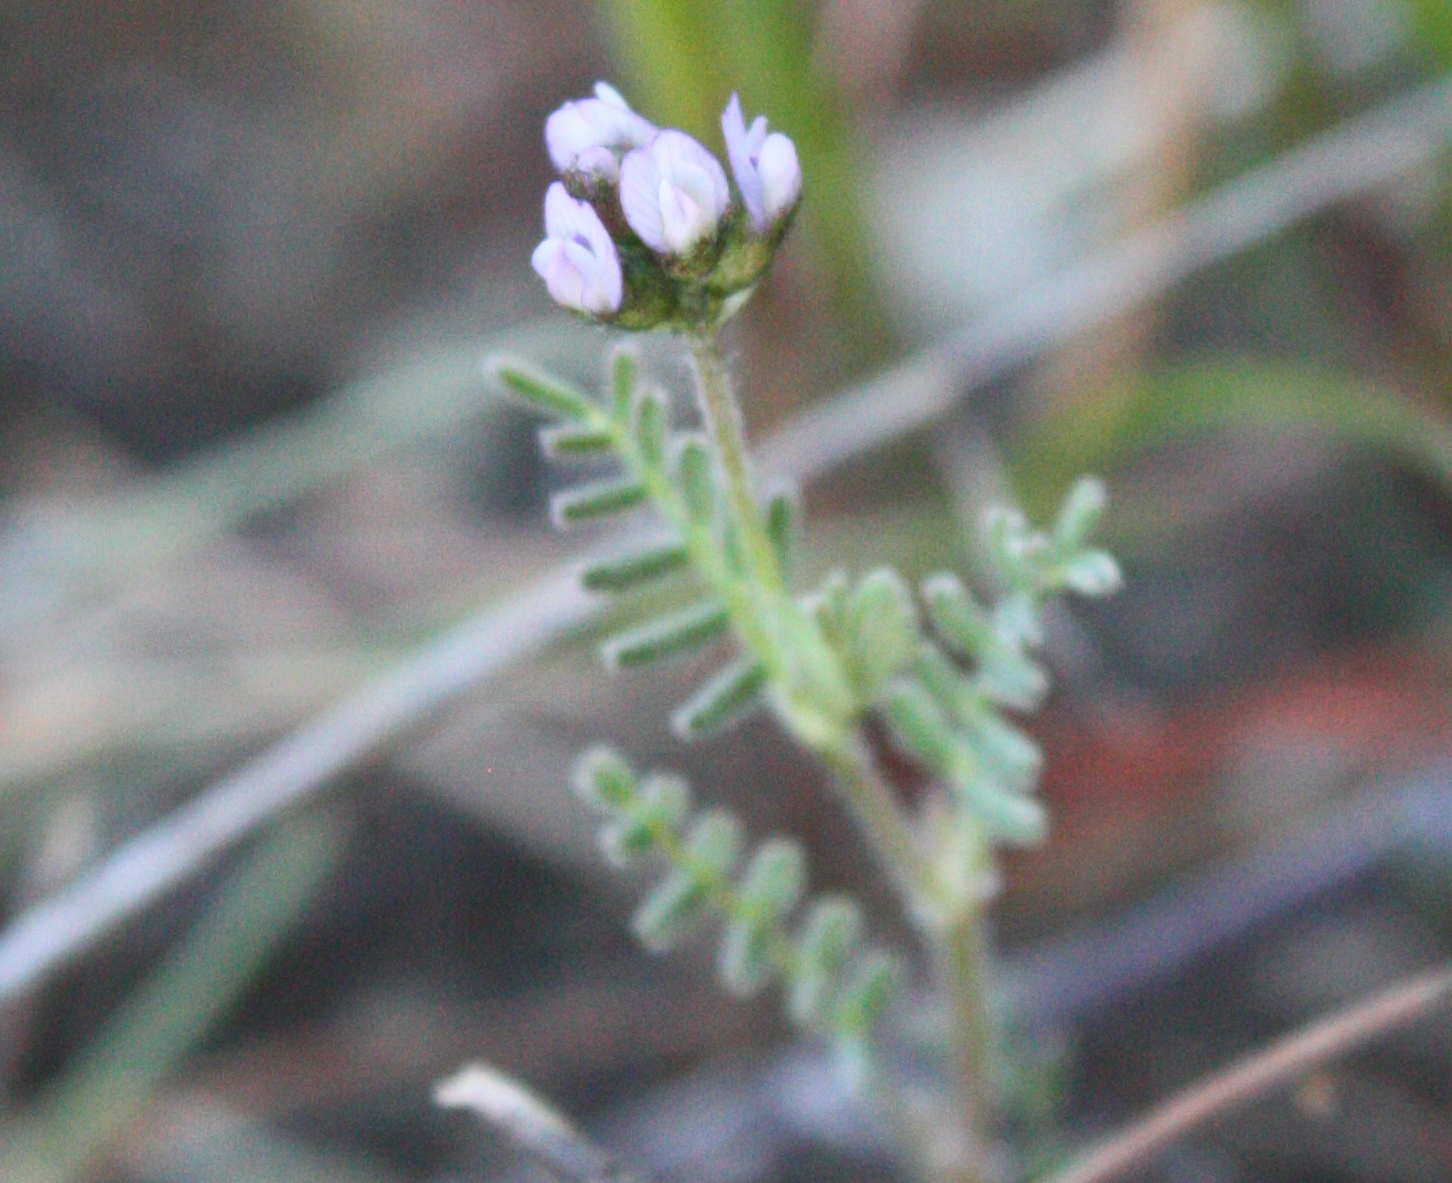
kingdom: Plantae
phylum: Tracheophyta
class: Magnoliopsida
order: Fabales
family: Fabaceae
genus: Astragalus
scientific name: Astragalus gambelianus
